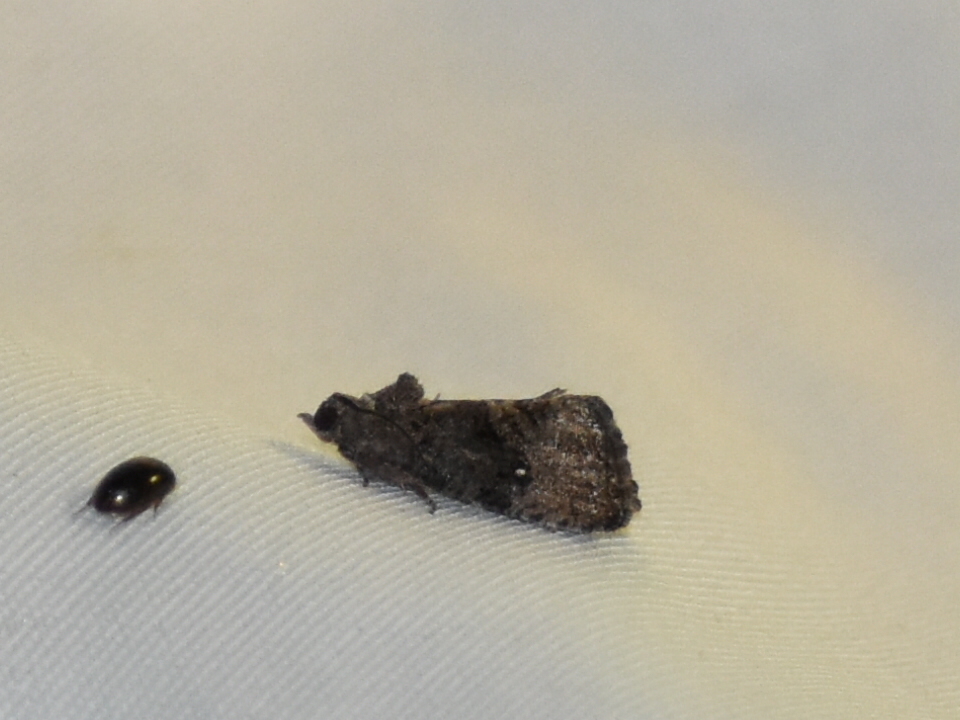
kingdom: Animalia
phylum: Arthropoda
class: Insecta
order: Lepidoptera
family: Tortricidae
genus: Gymnandrosoma
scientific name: Gymnandrosoma punctidiscanum
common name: Dotted ecdytolopha moth
